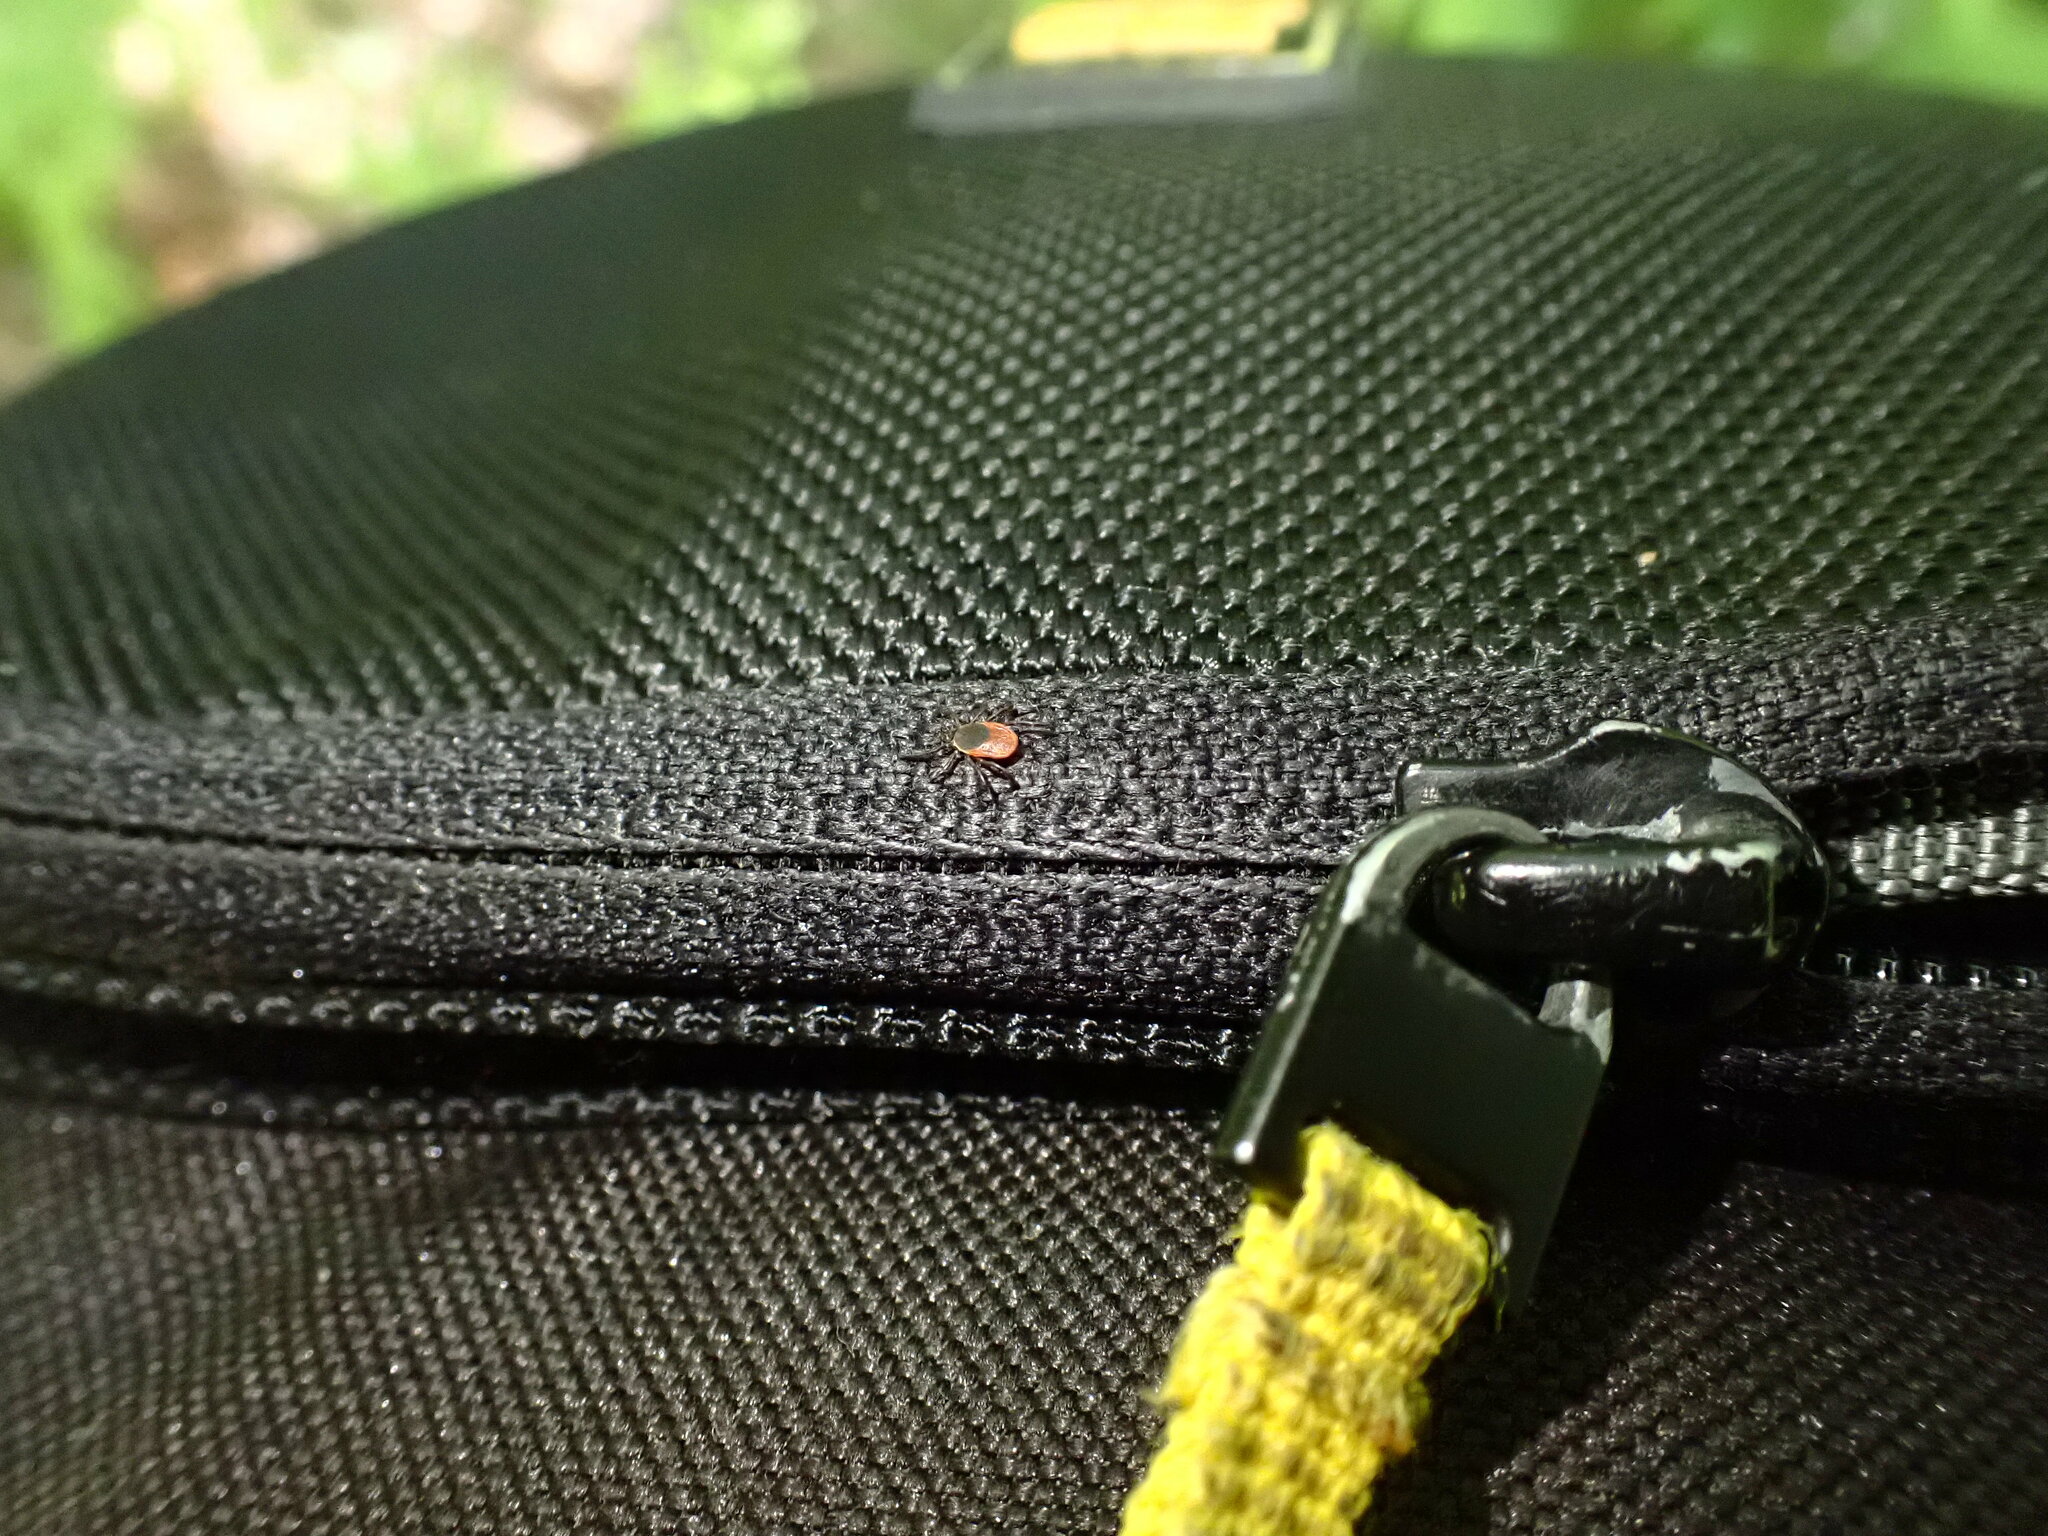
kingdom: Animalia
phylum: Arthropoda
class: Arachnida
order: Ixodida
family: Ixodidae
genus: Ixodes
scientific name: Ixodes scapularis
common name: Black legged tick
